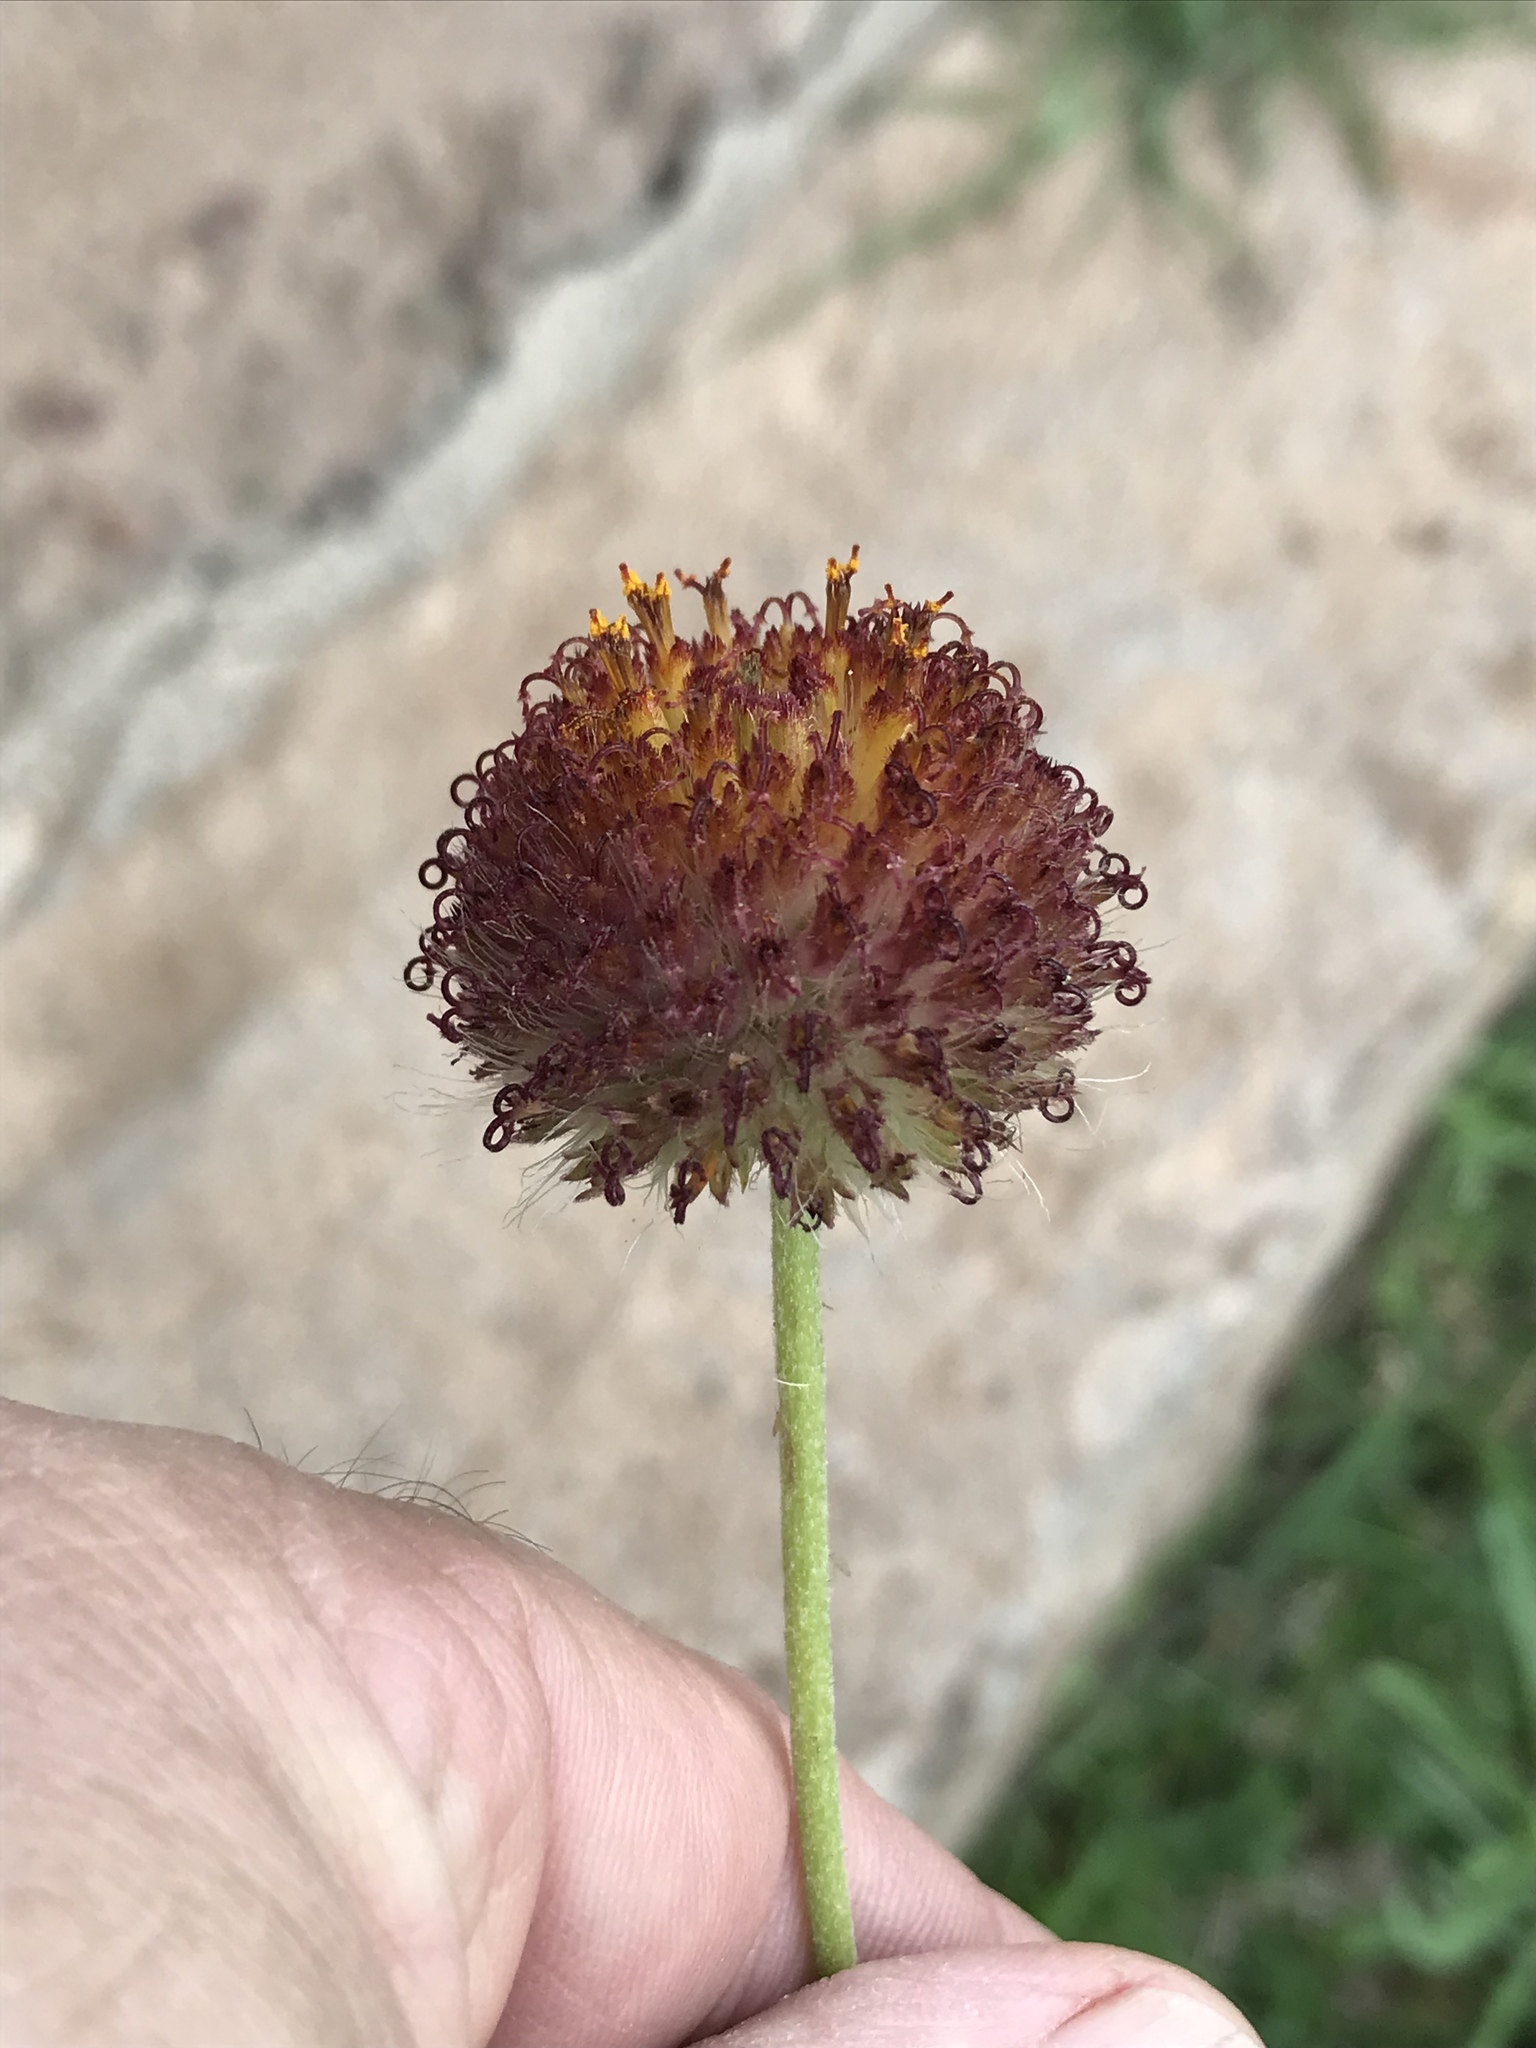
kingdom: Plantae
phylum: Tracheophyta
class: Magnoliopsida
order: Asterales
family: Asteraceae
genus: Gaillardia
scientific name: Gaillardia suavis
